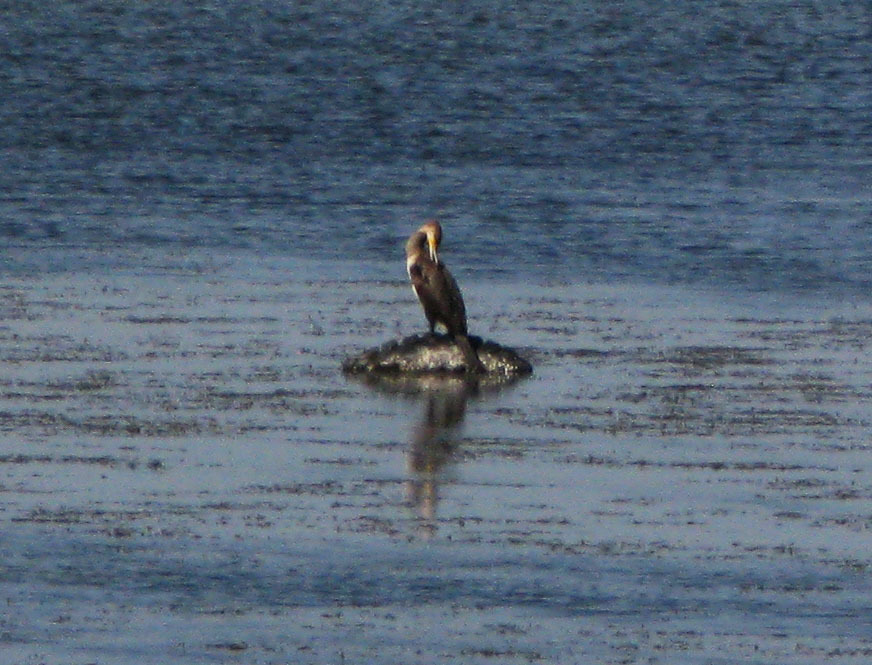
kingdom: Animalia
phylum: Chordata
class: Aves
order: Suliformes
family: Phalacrocoracidae
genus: Phalacrocorax
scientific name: Phalacrocorax carbo
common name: Great cormorant
